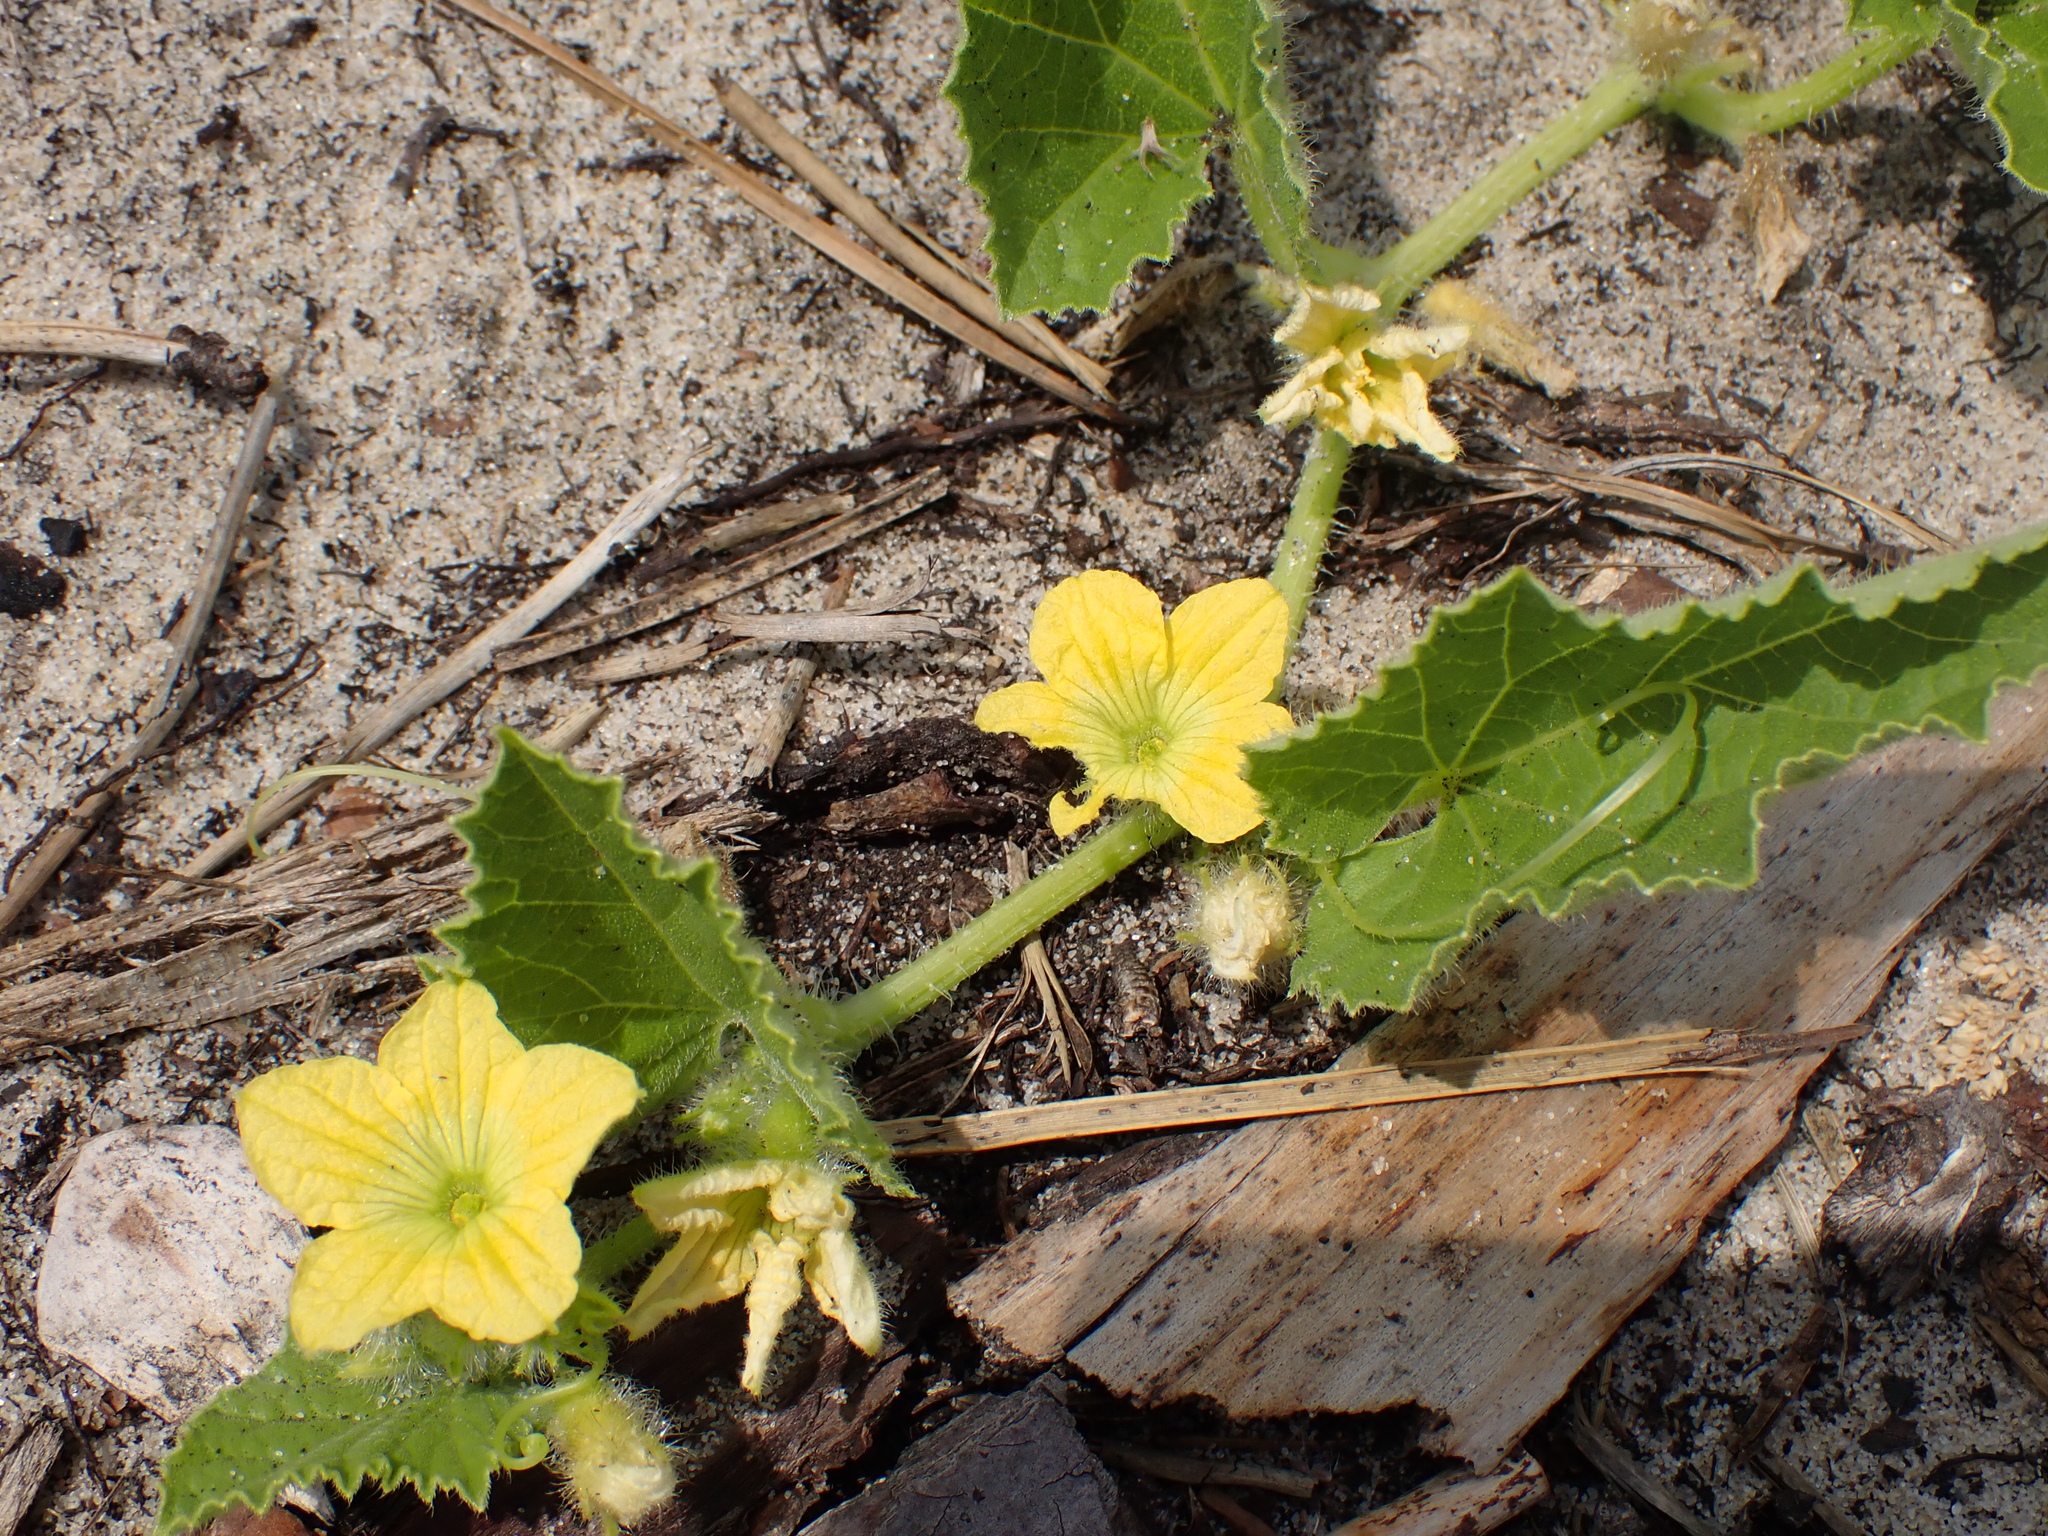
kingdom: Plantae
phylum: Tracheophyta
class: Magnoliopsida
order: Cucurbitales
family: Cucurbitaceae
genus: Cucumis
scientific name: Cucumis melo
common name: Melon
